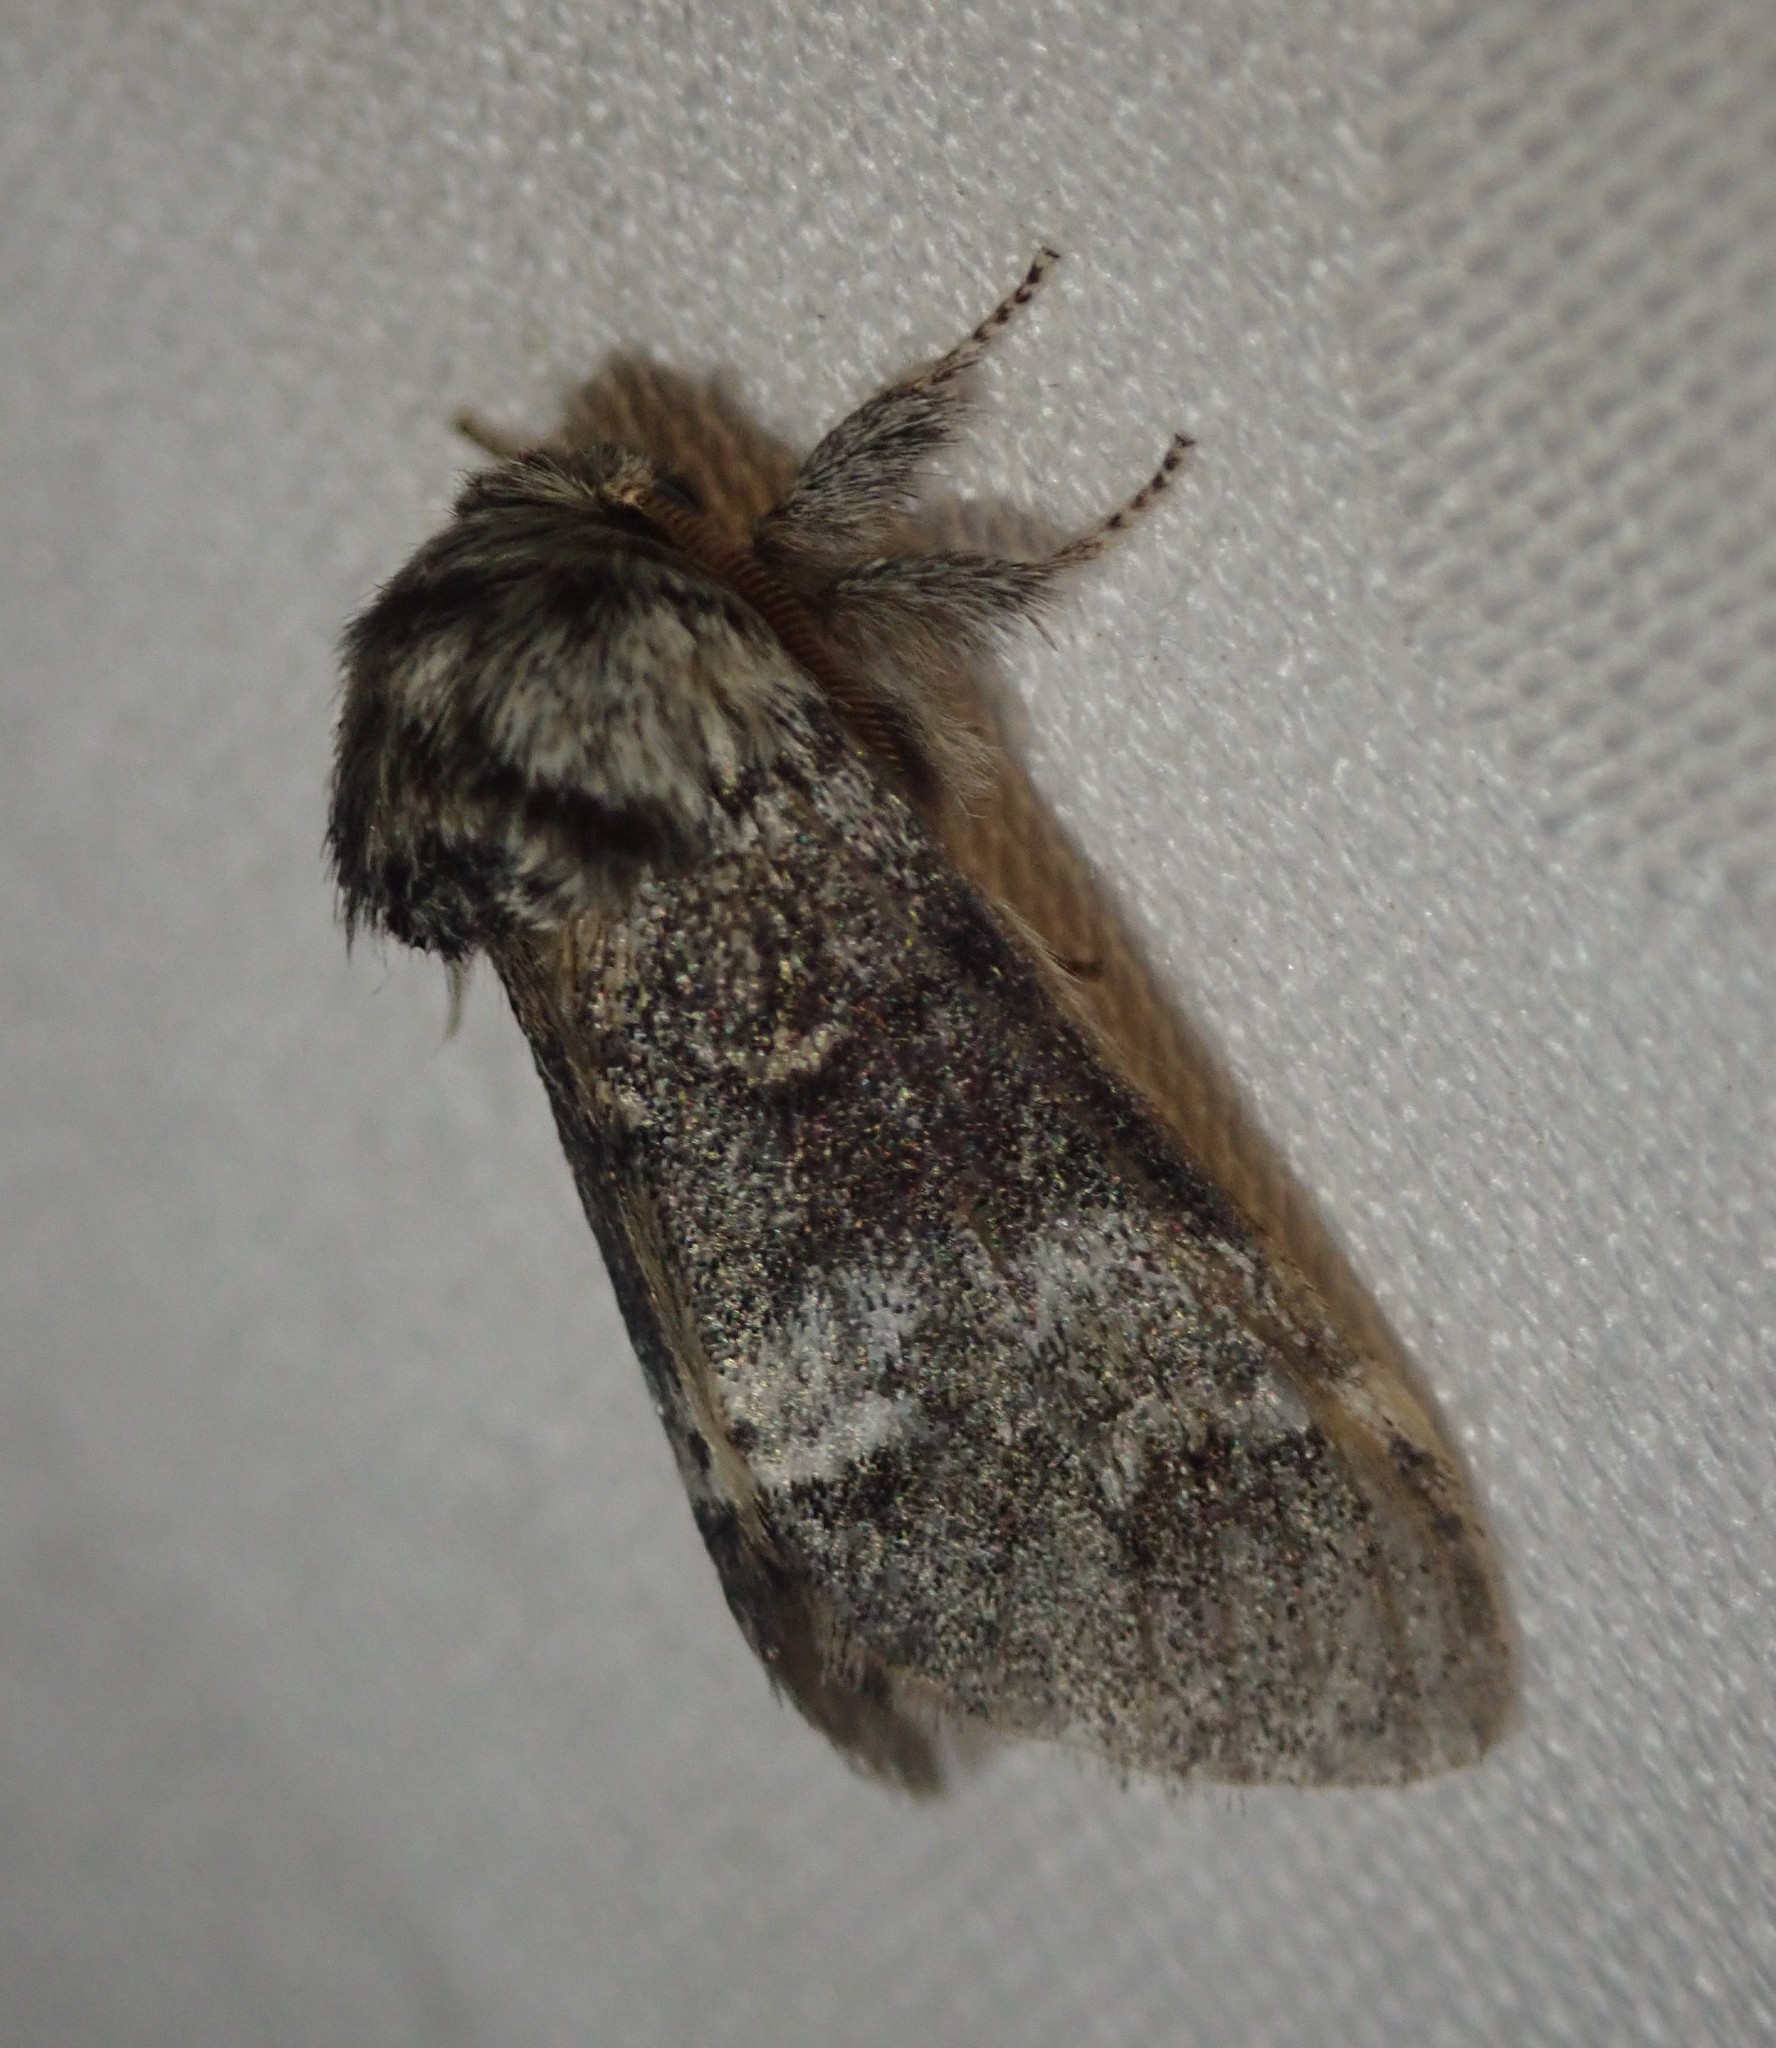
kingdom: Animalia
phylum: Arthropoda
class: Insecta
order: Lepidoptera
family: Notodontidae
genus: Drymonia
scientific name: Drymonia dodonaea
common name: Marbled brown
